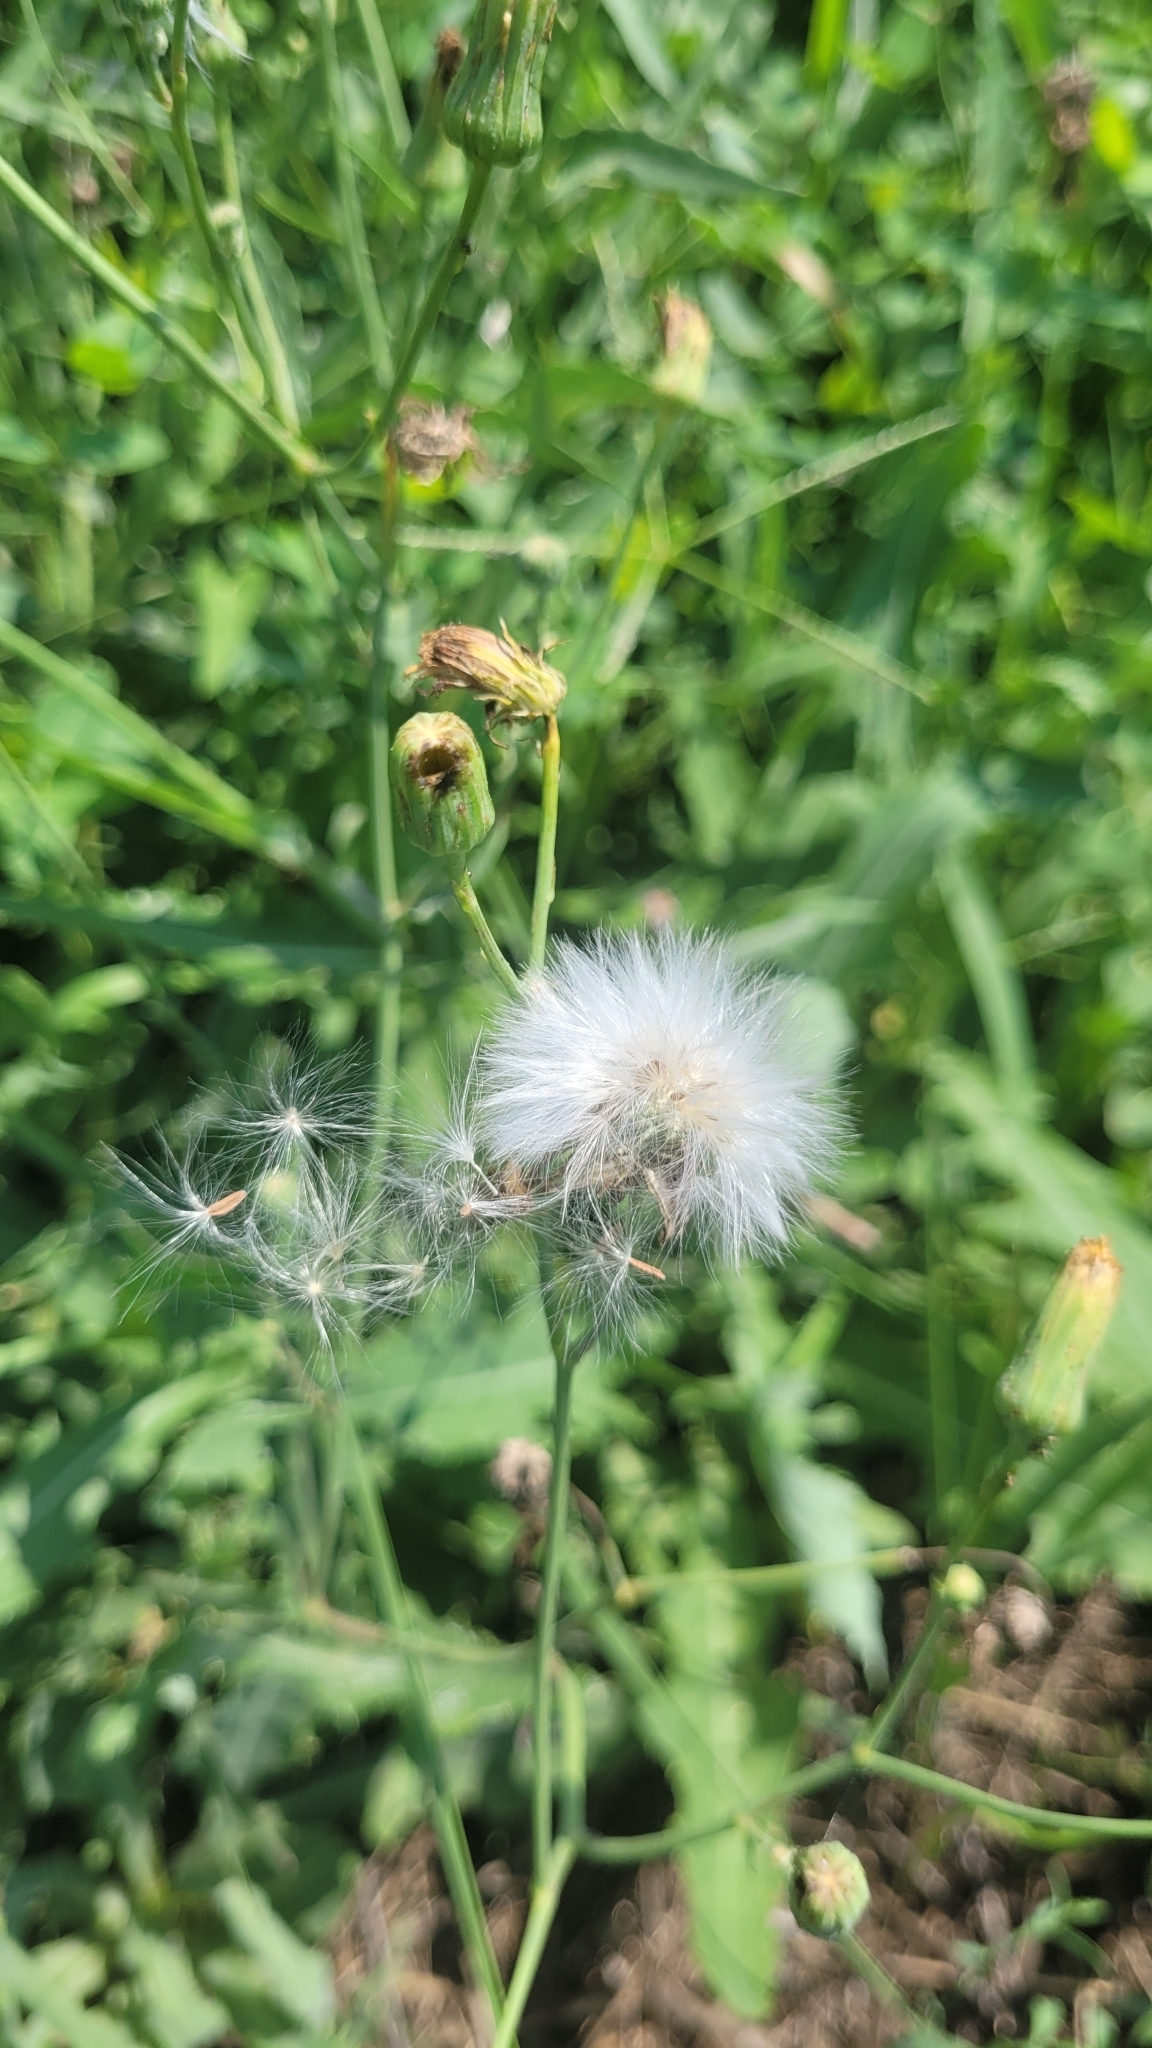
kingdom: Plantae
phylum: Tracheophyta
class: Magnoliopsida
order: Asterales
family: Asteraceae
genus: Sonchus
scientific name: Sonchus arvensis
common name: Perennial sow-thistle
